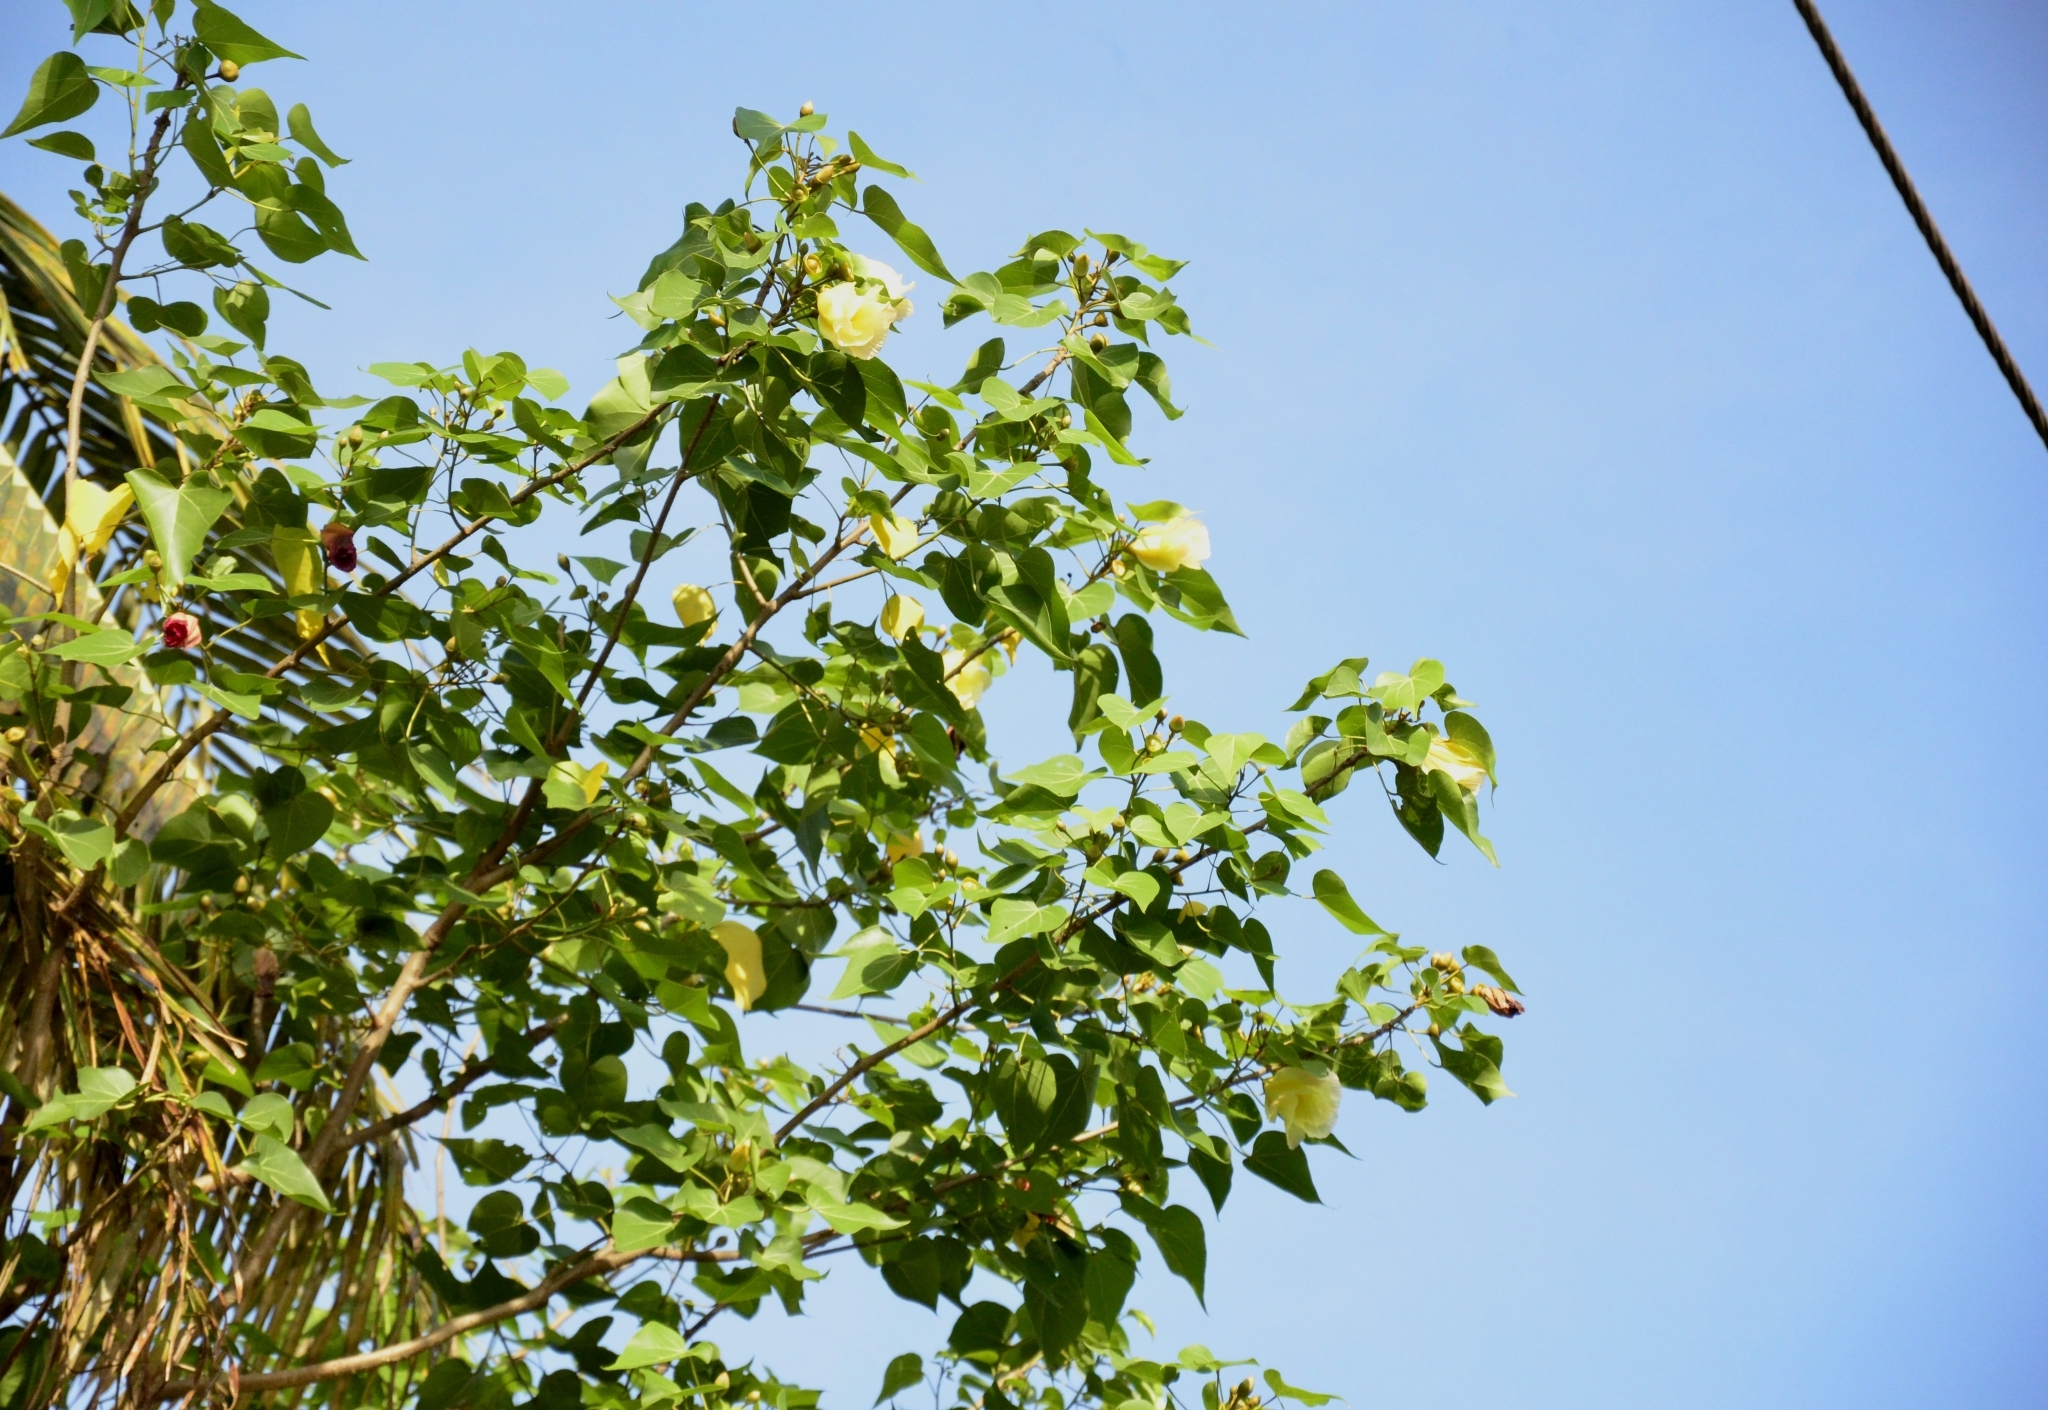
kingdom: Plantae
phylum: Tracheophyta
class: Magnoliopsida
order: Malvales
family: Malvaceae
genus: Thespesia
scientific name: Thespesia populnea
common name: Seaside mahoe
